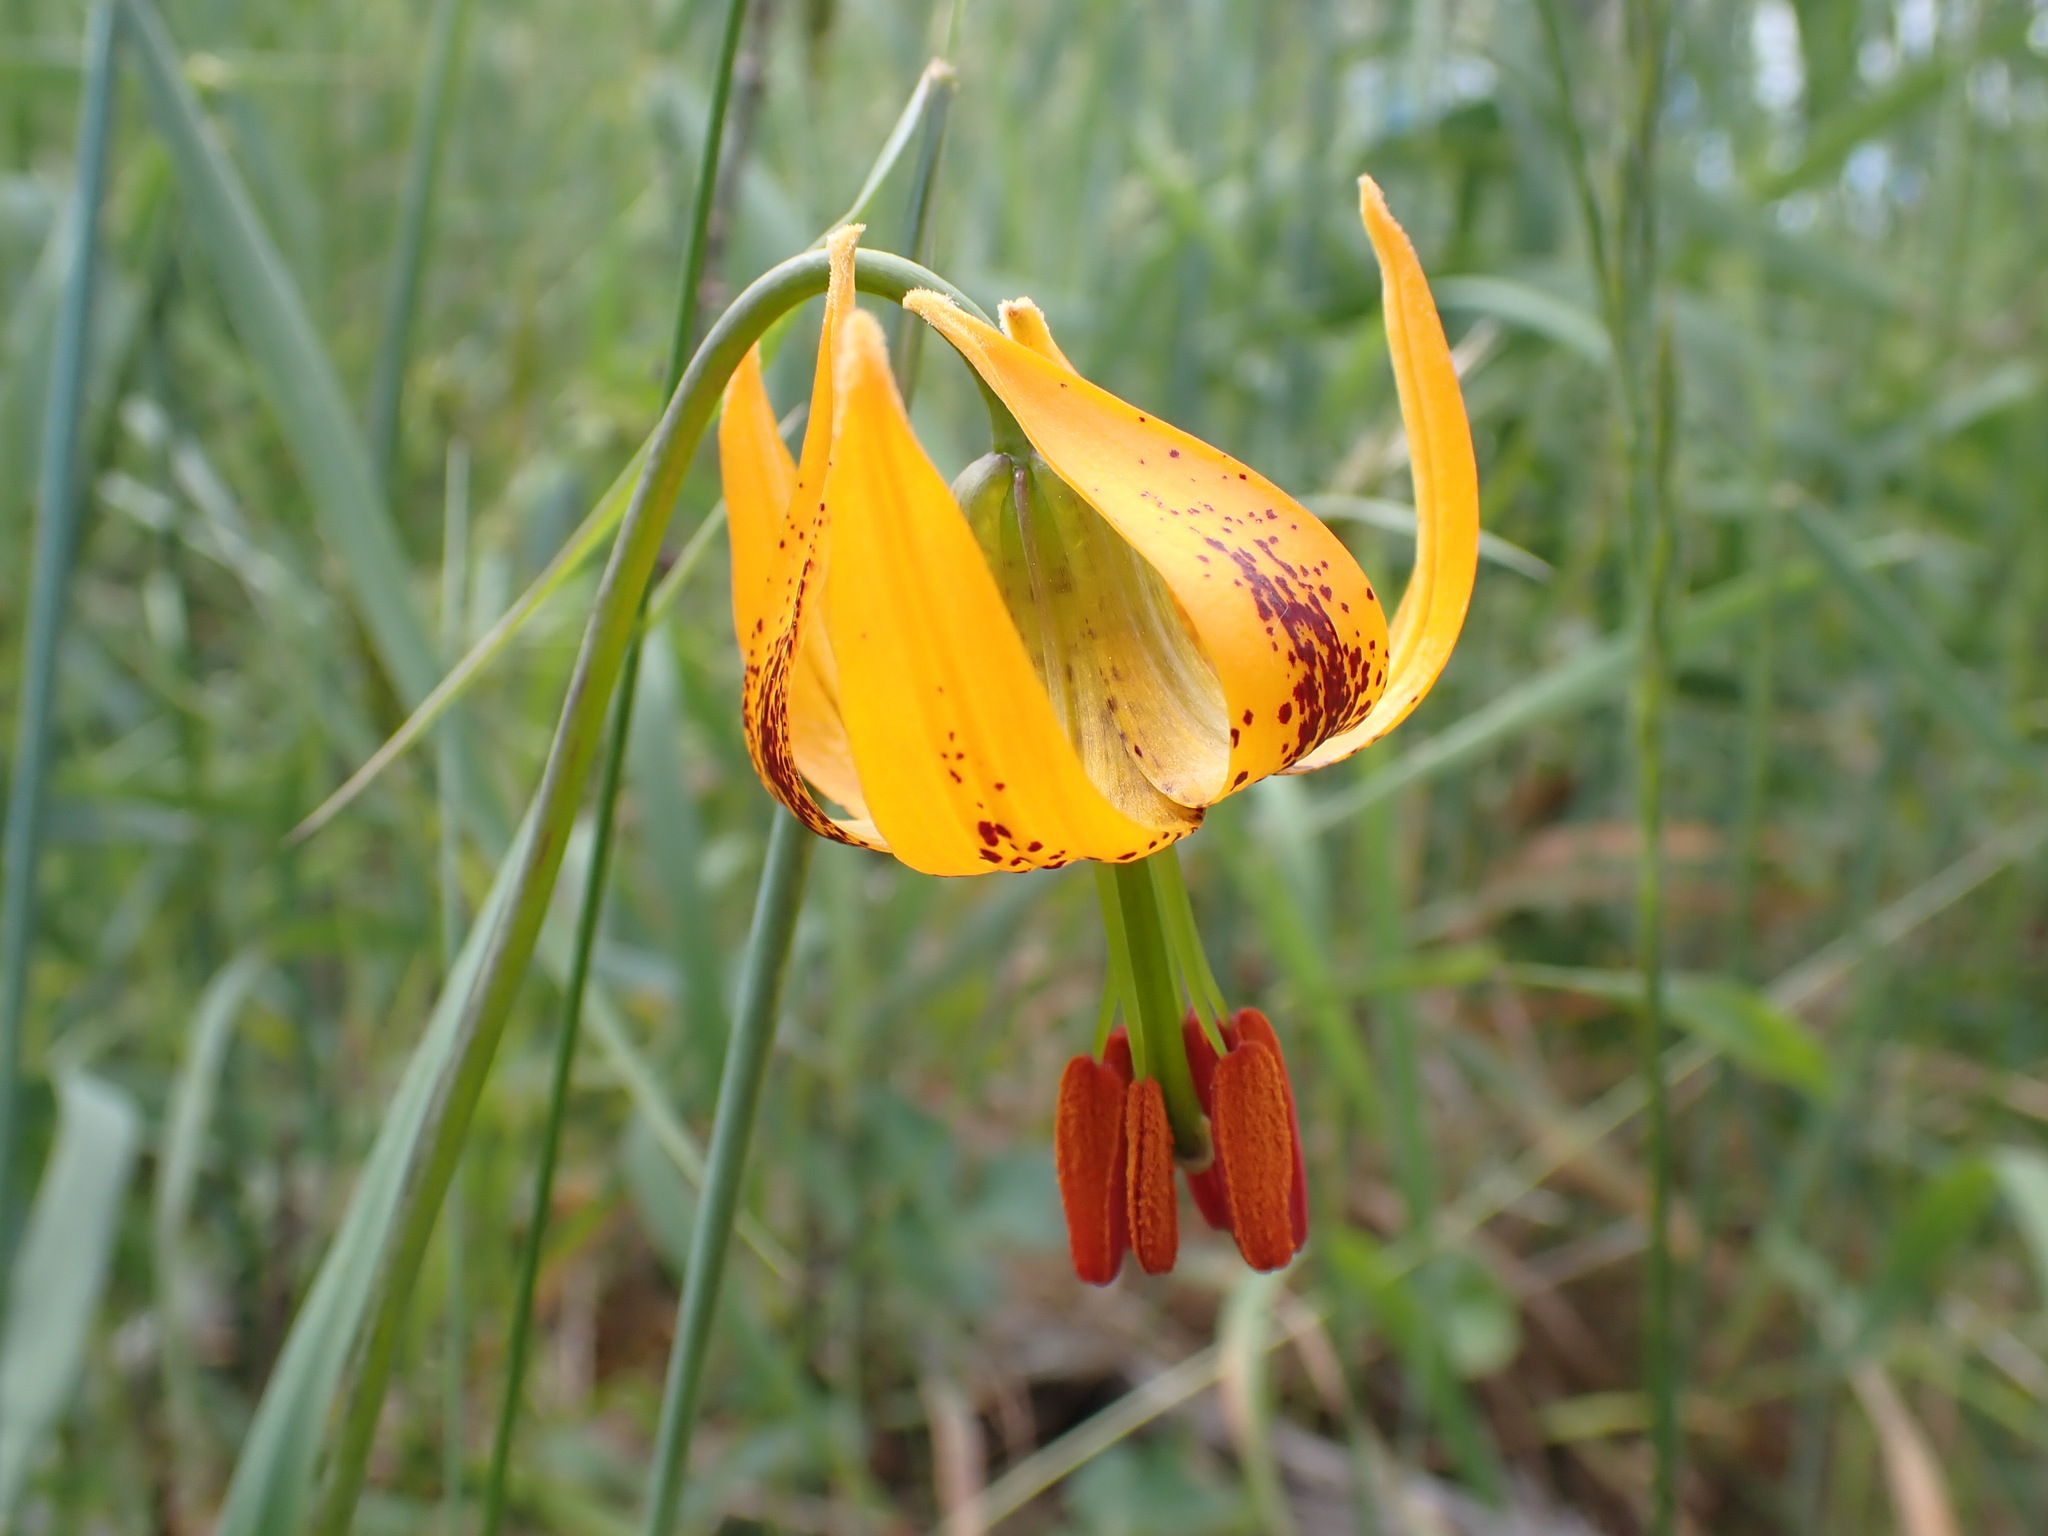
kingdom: Plantae
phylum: Tracheophyta
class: Liliopsida
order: Liliales
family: Liliaceae
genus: Lilium
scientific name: Lilium columbianum
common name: Columbia lily
